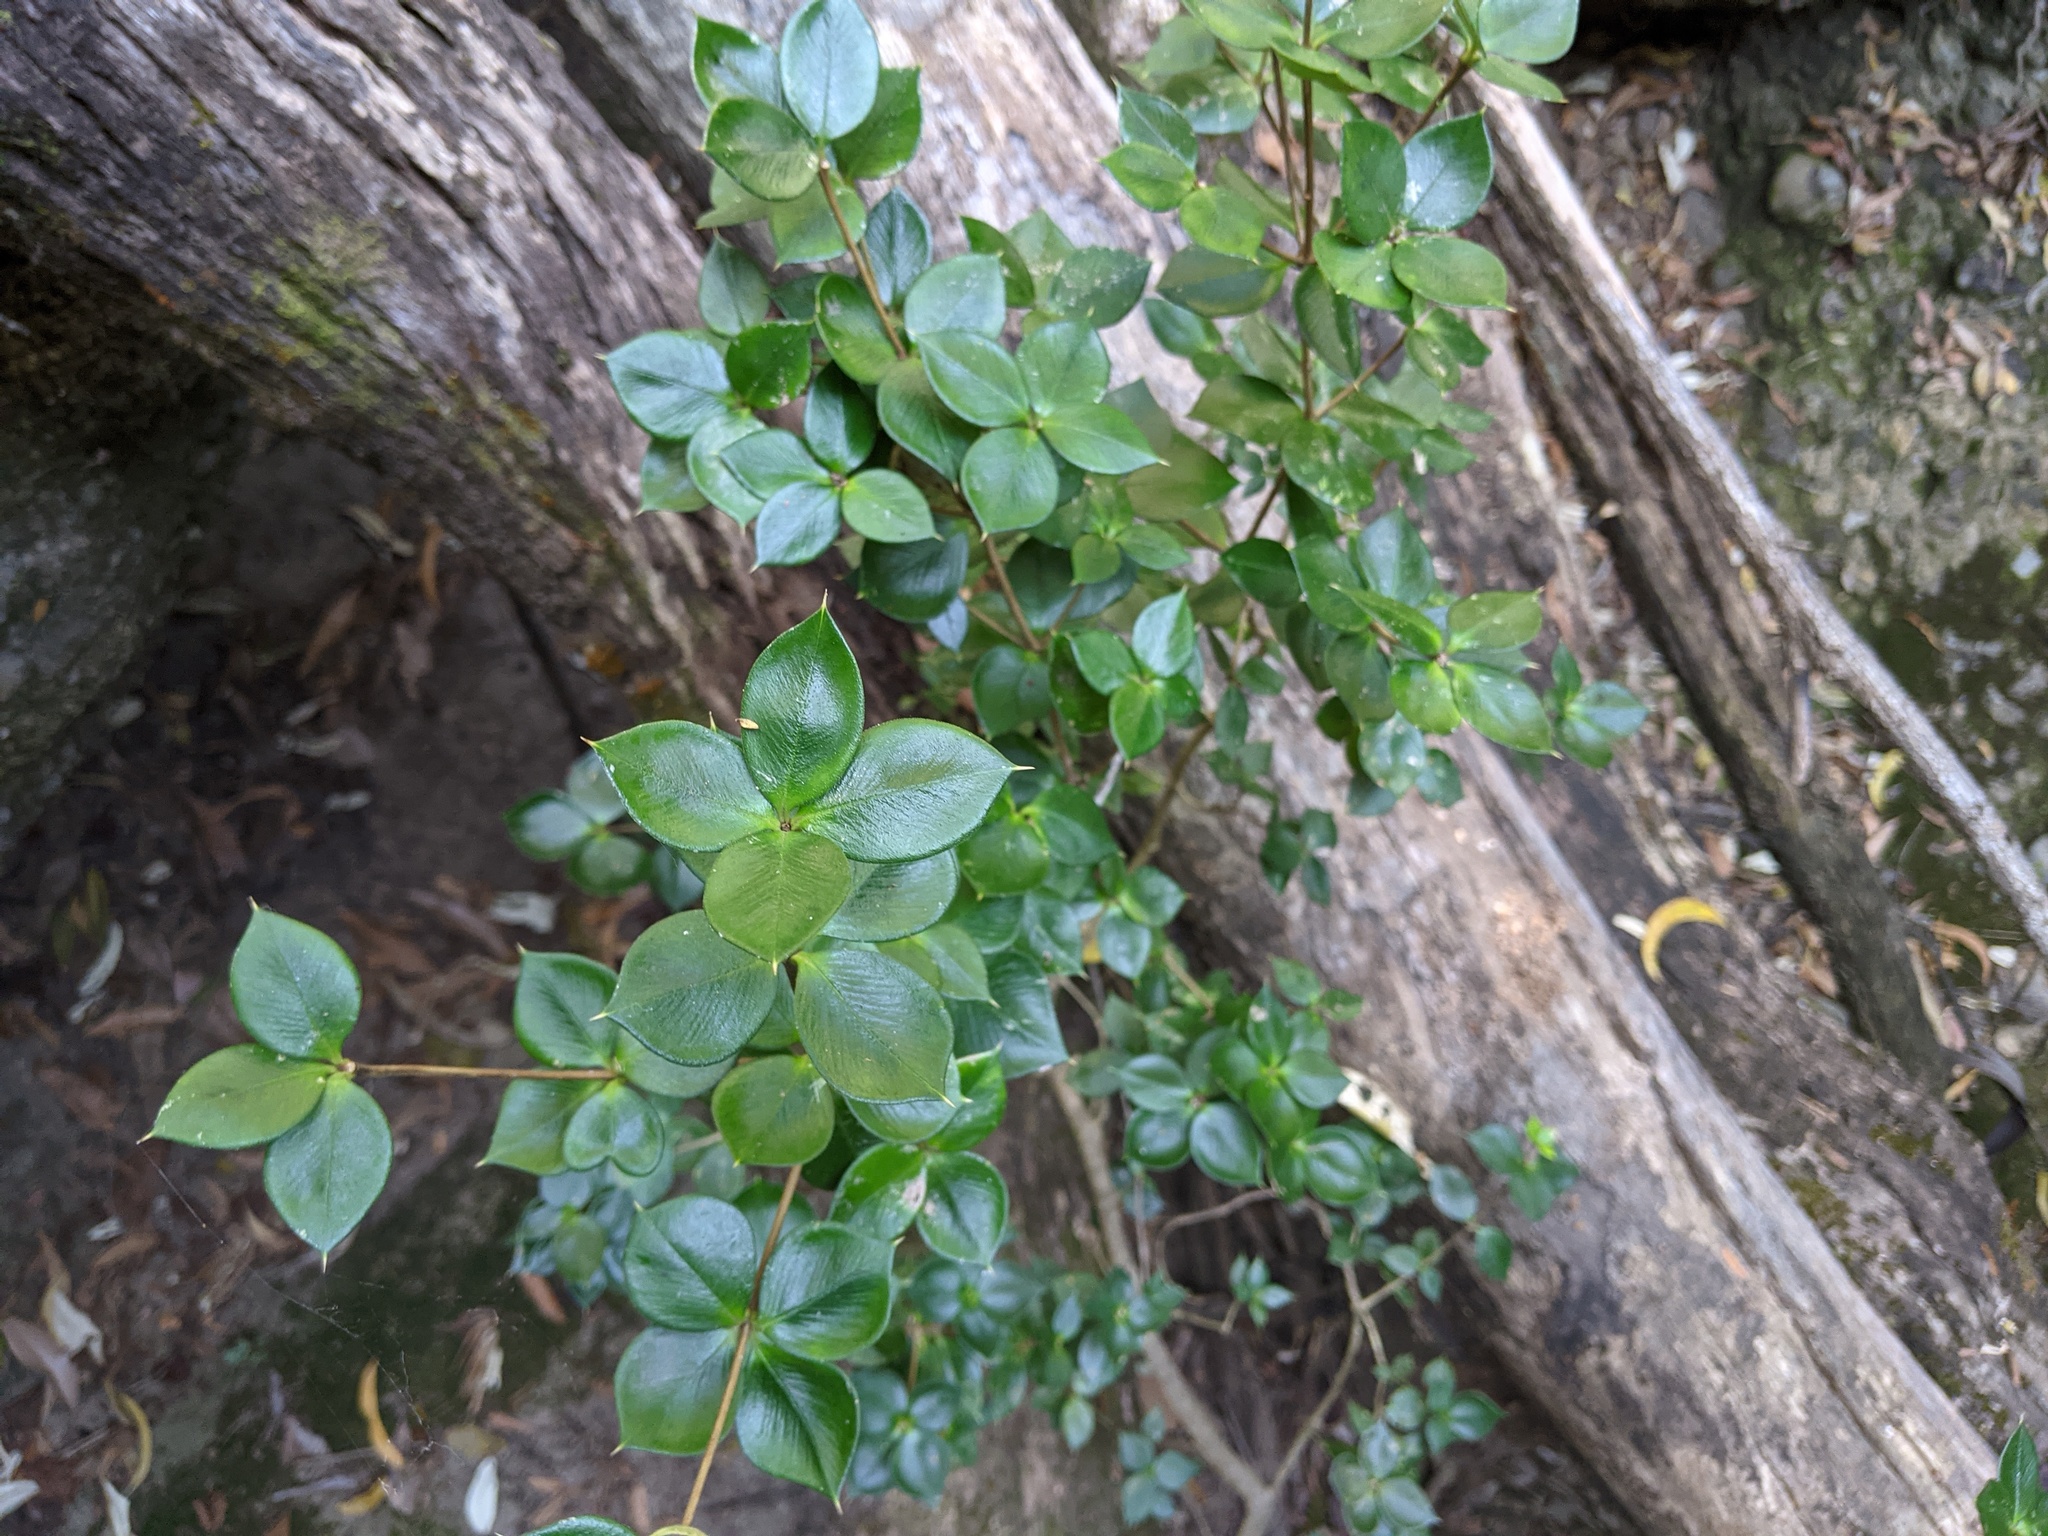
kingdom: Plantae
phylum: Tracheophyta
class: Magnoliopsida
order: Gentianales
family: Apocynaceae
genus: Alyxia
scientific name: Alyxia ruscifolia
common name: Chainfruit
